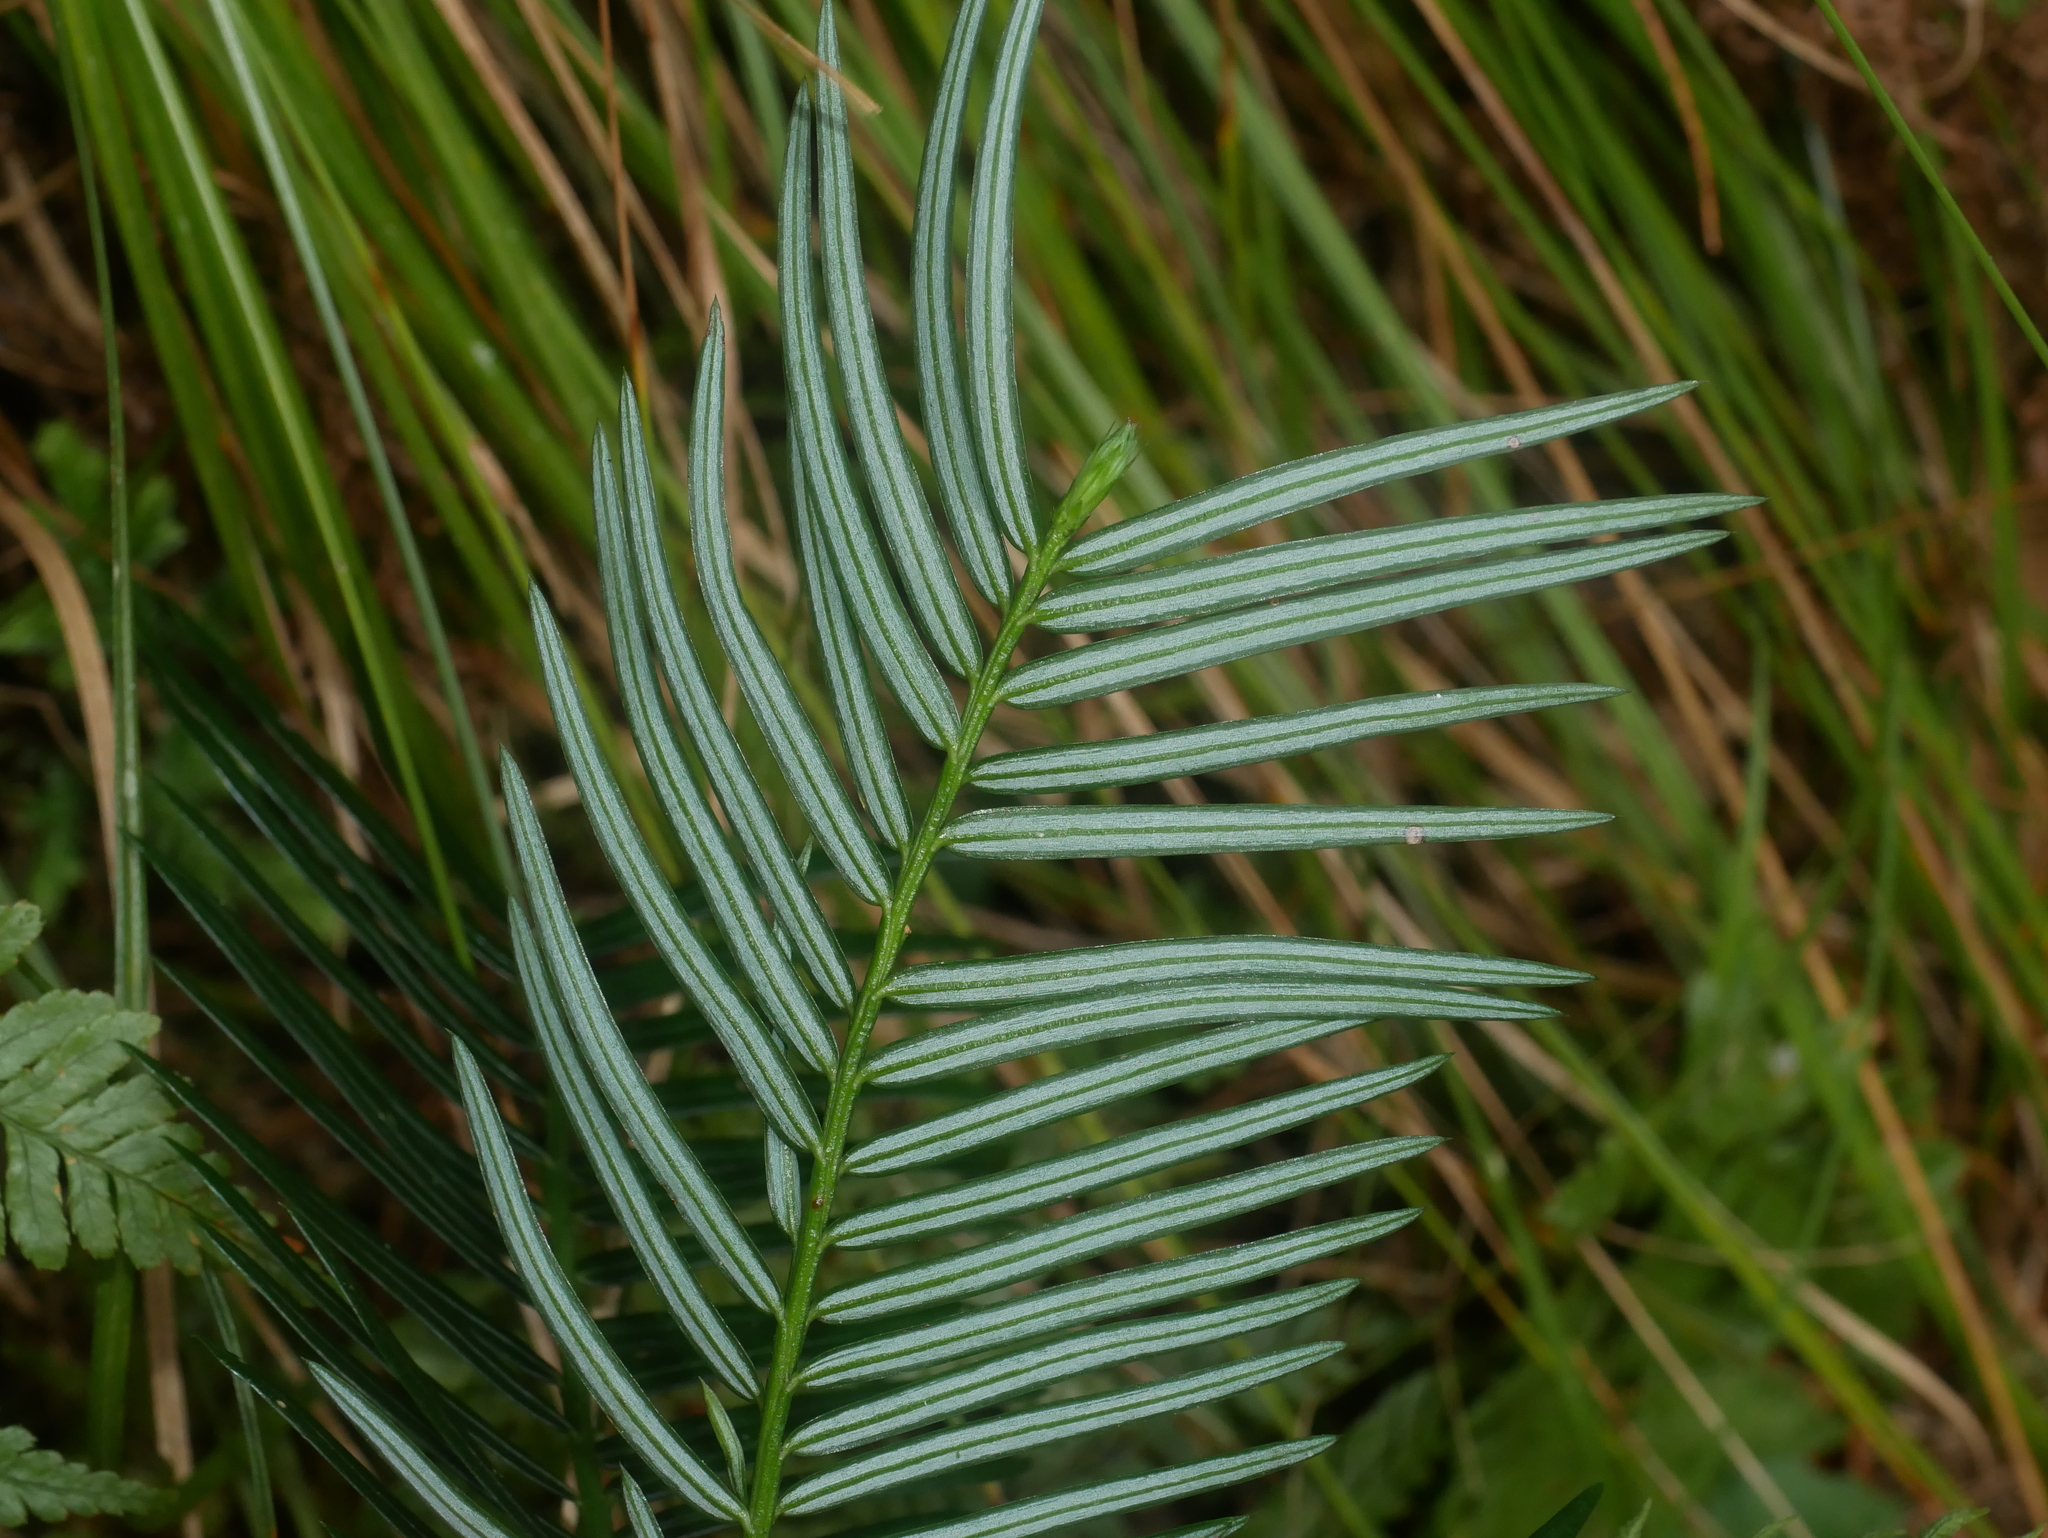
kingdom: Plantae
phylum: Tracheophyta
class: Pinopsida
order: Pinales
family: Cephalotaxaceae
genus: Cephalotaxus
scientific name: Cephalotaxus harringtonii
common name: Harrington's plum yew
